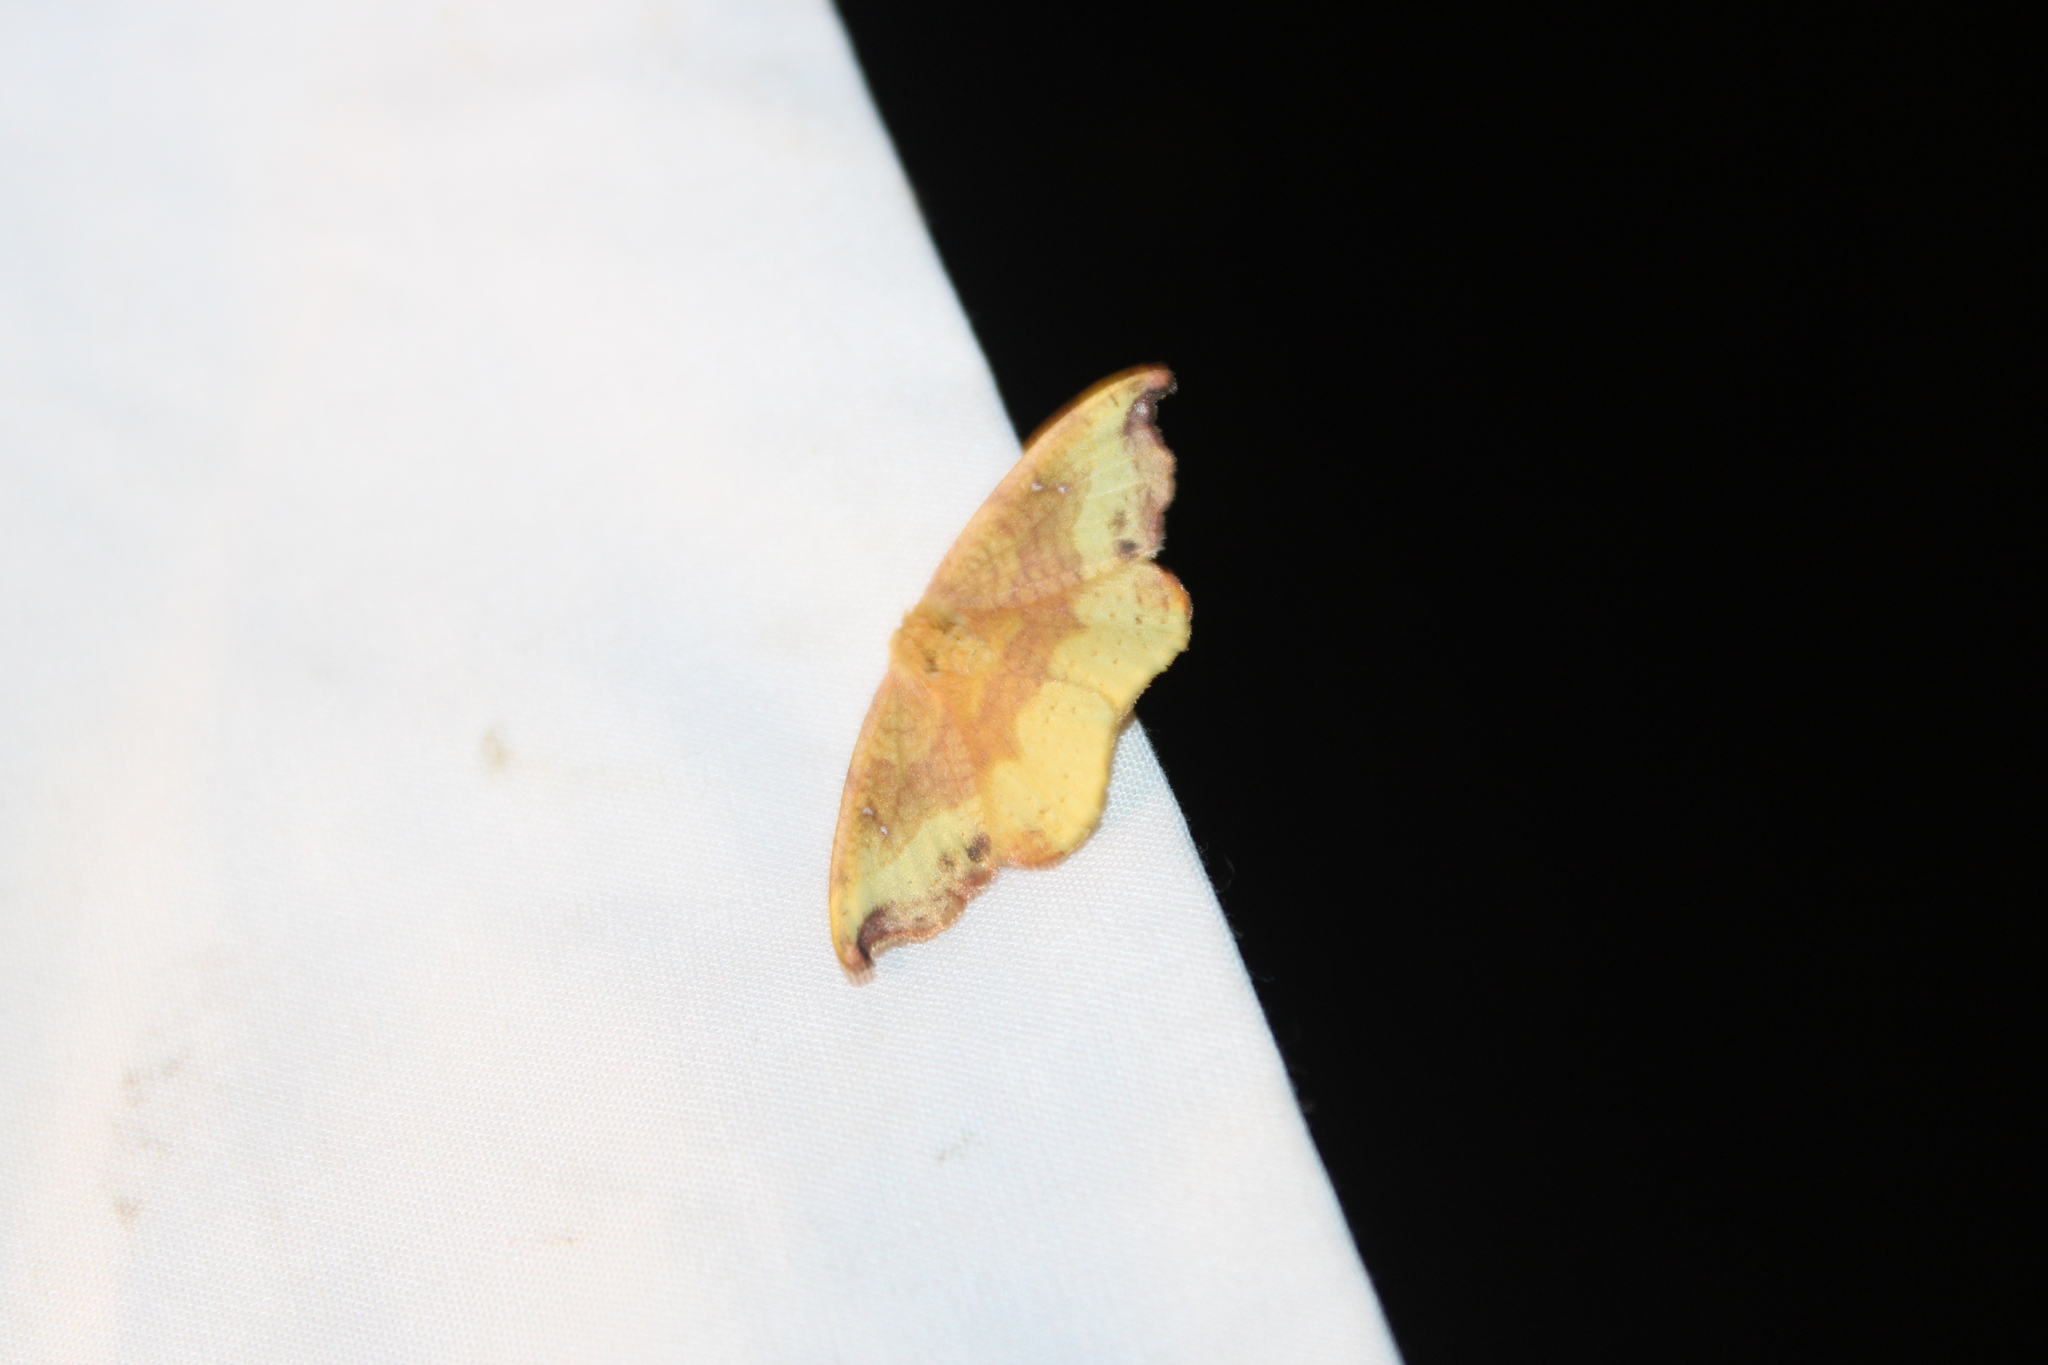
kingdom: Animalia
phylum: Arthropoda
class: Insecta
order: Lepidoptera
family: Drepanidae
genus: Oreta
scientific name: Oreta rosea
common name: Rose hooktip
